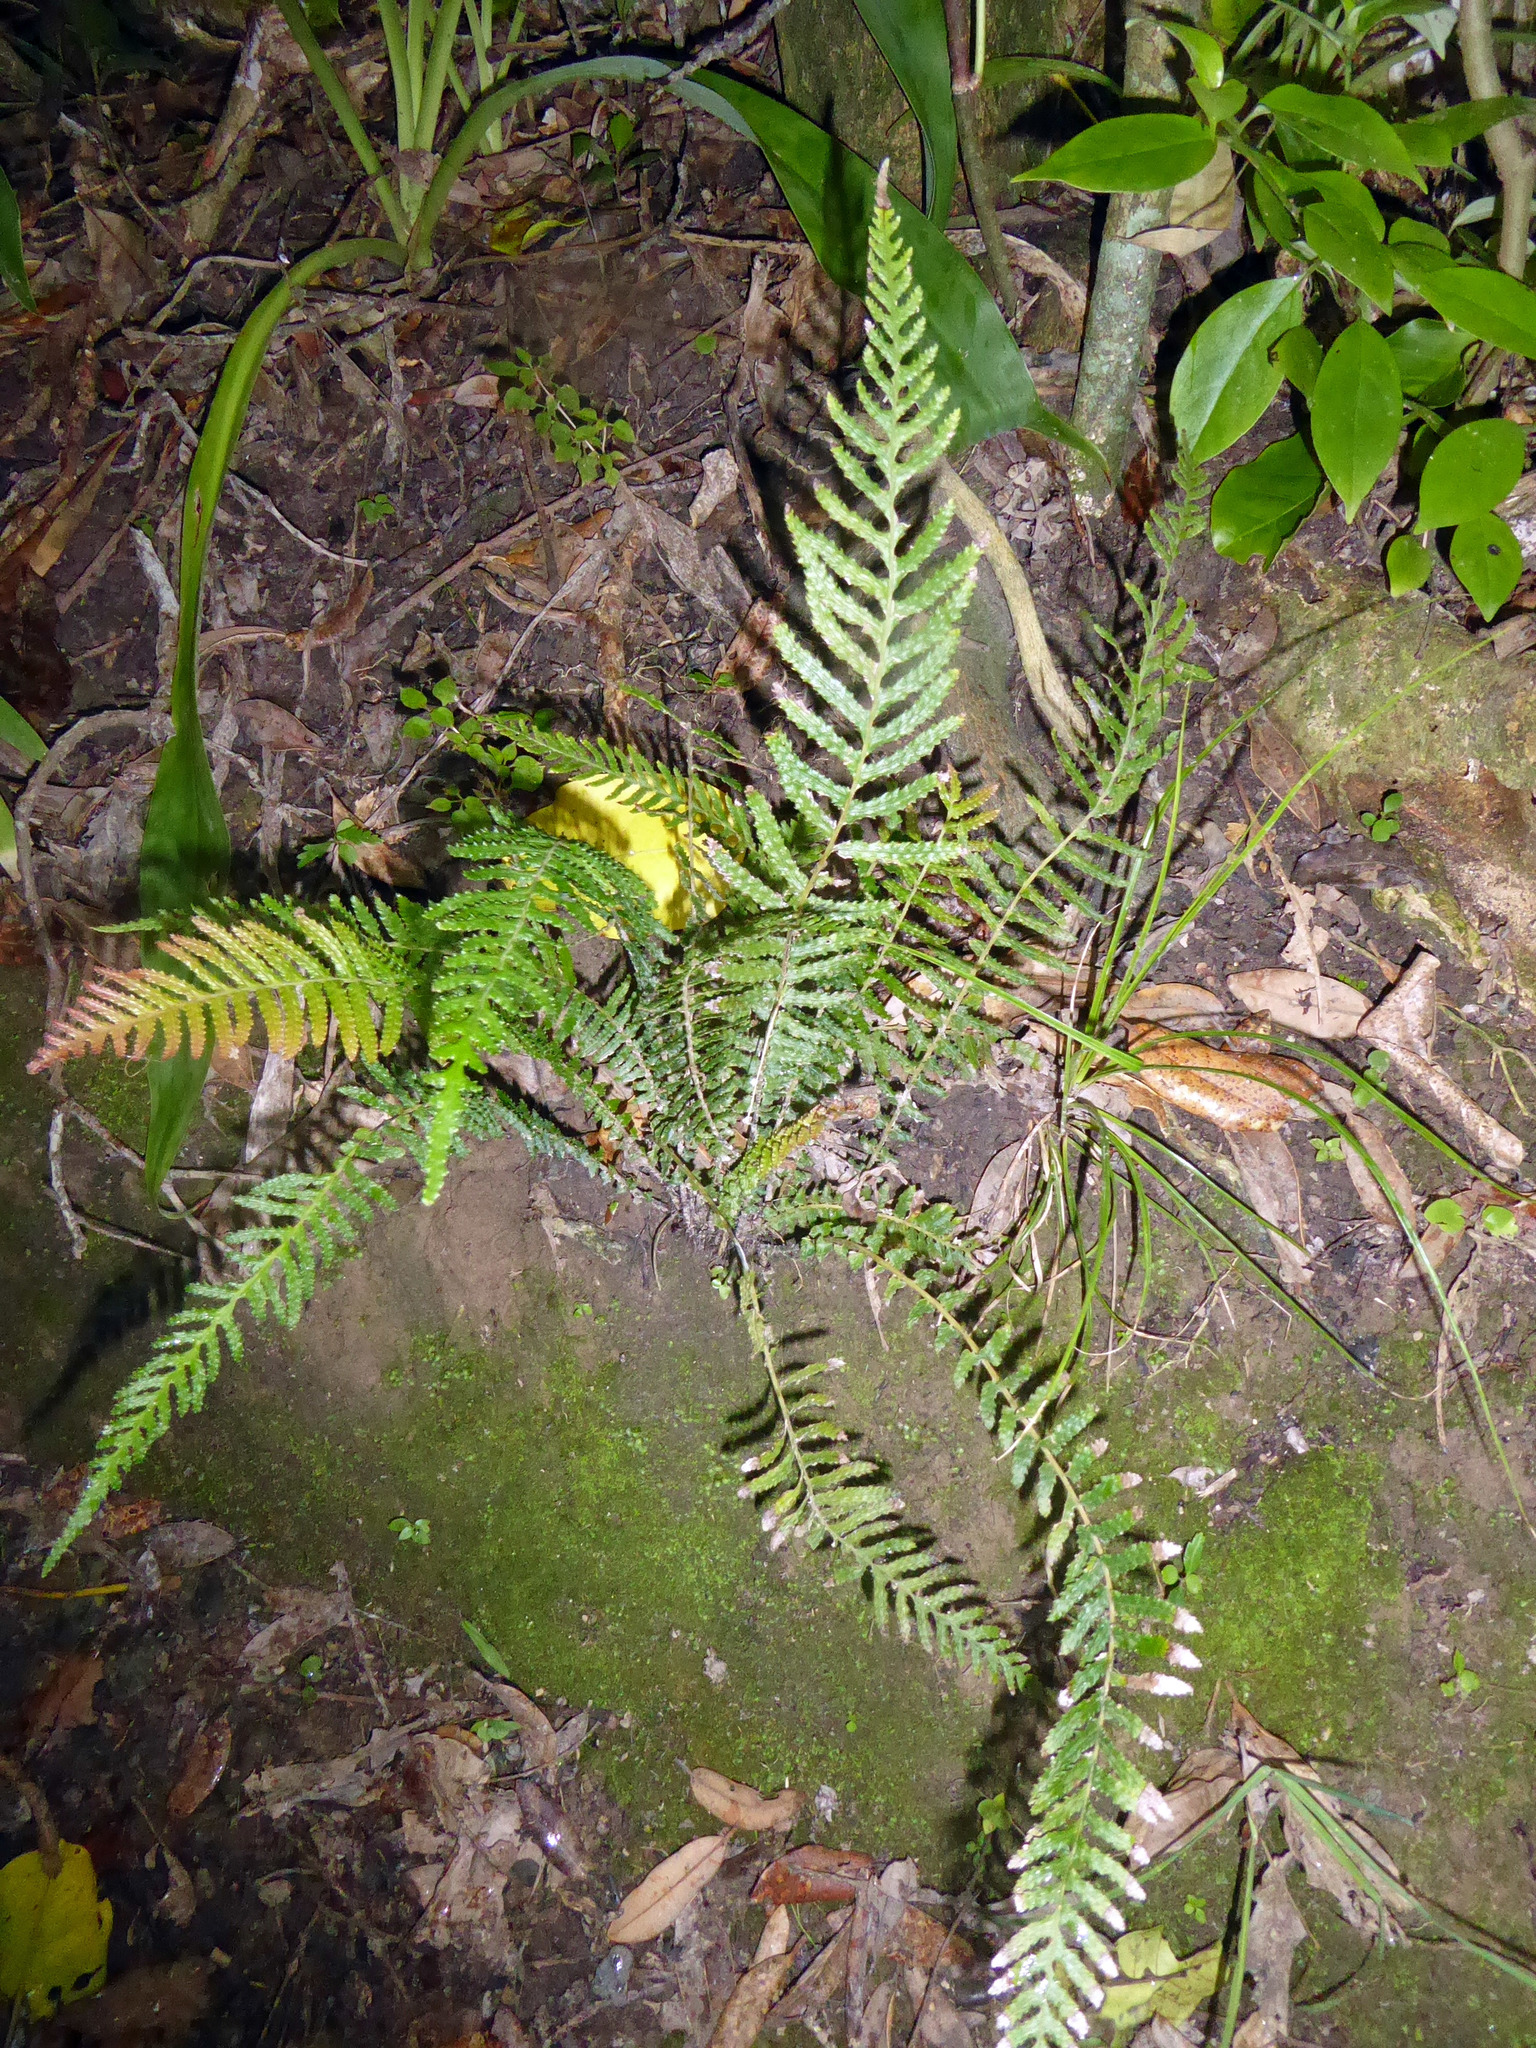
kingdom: Plantae
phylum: Tracheophyta
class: Polypodiopsida
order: Polypodiales
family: Blechnaceae
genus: Doodia
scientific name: Doodia australis
